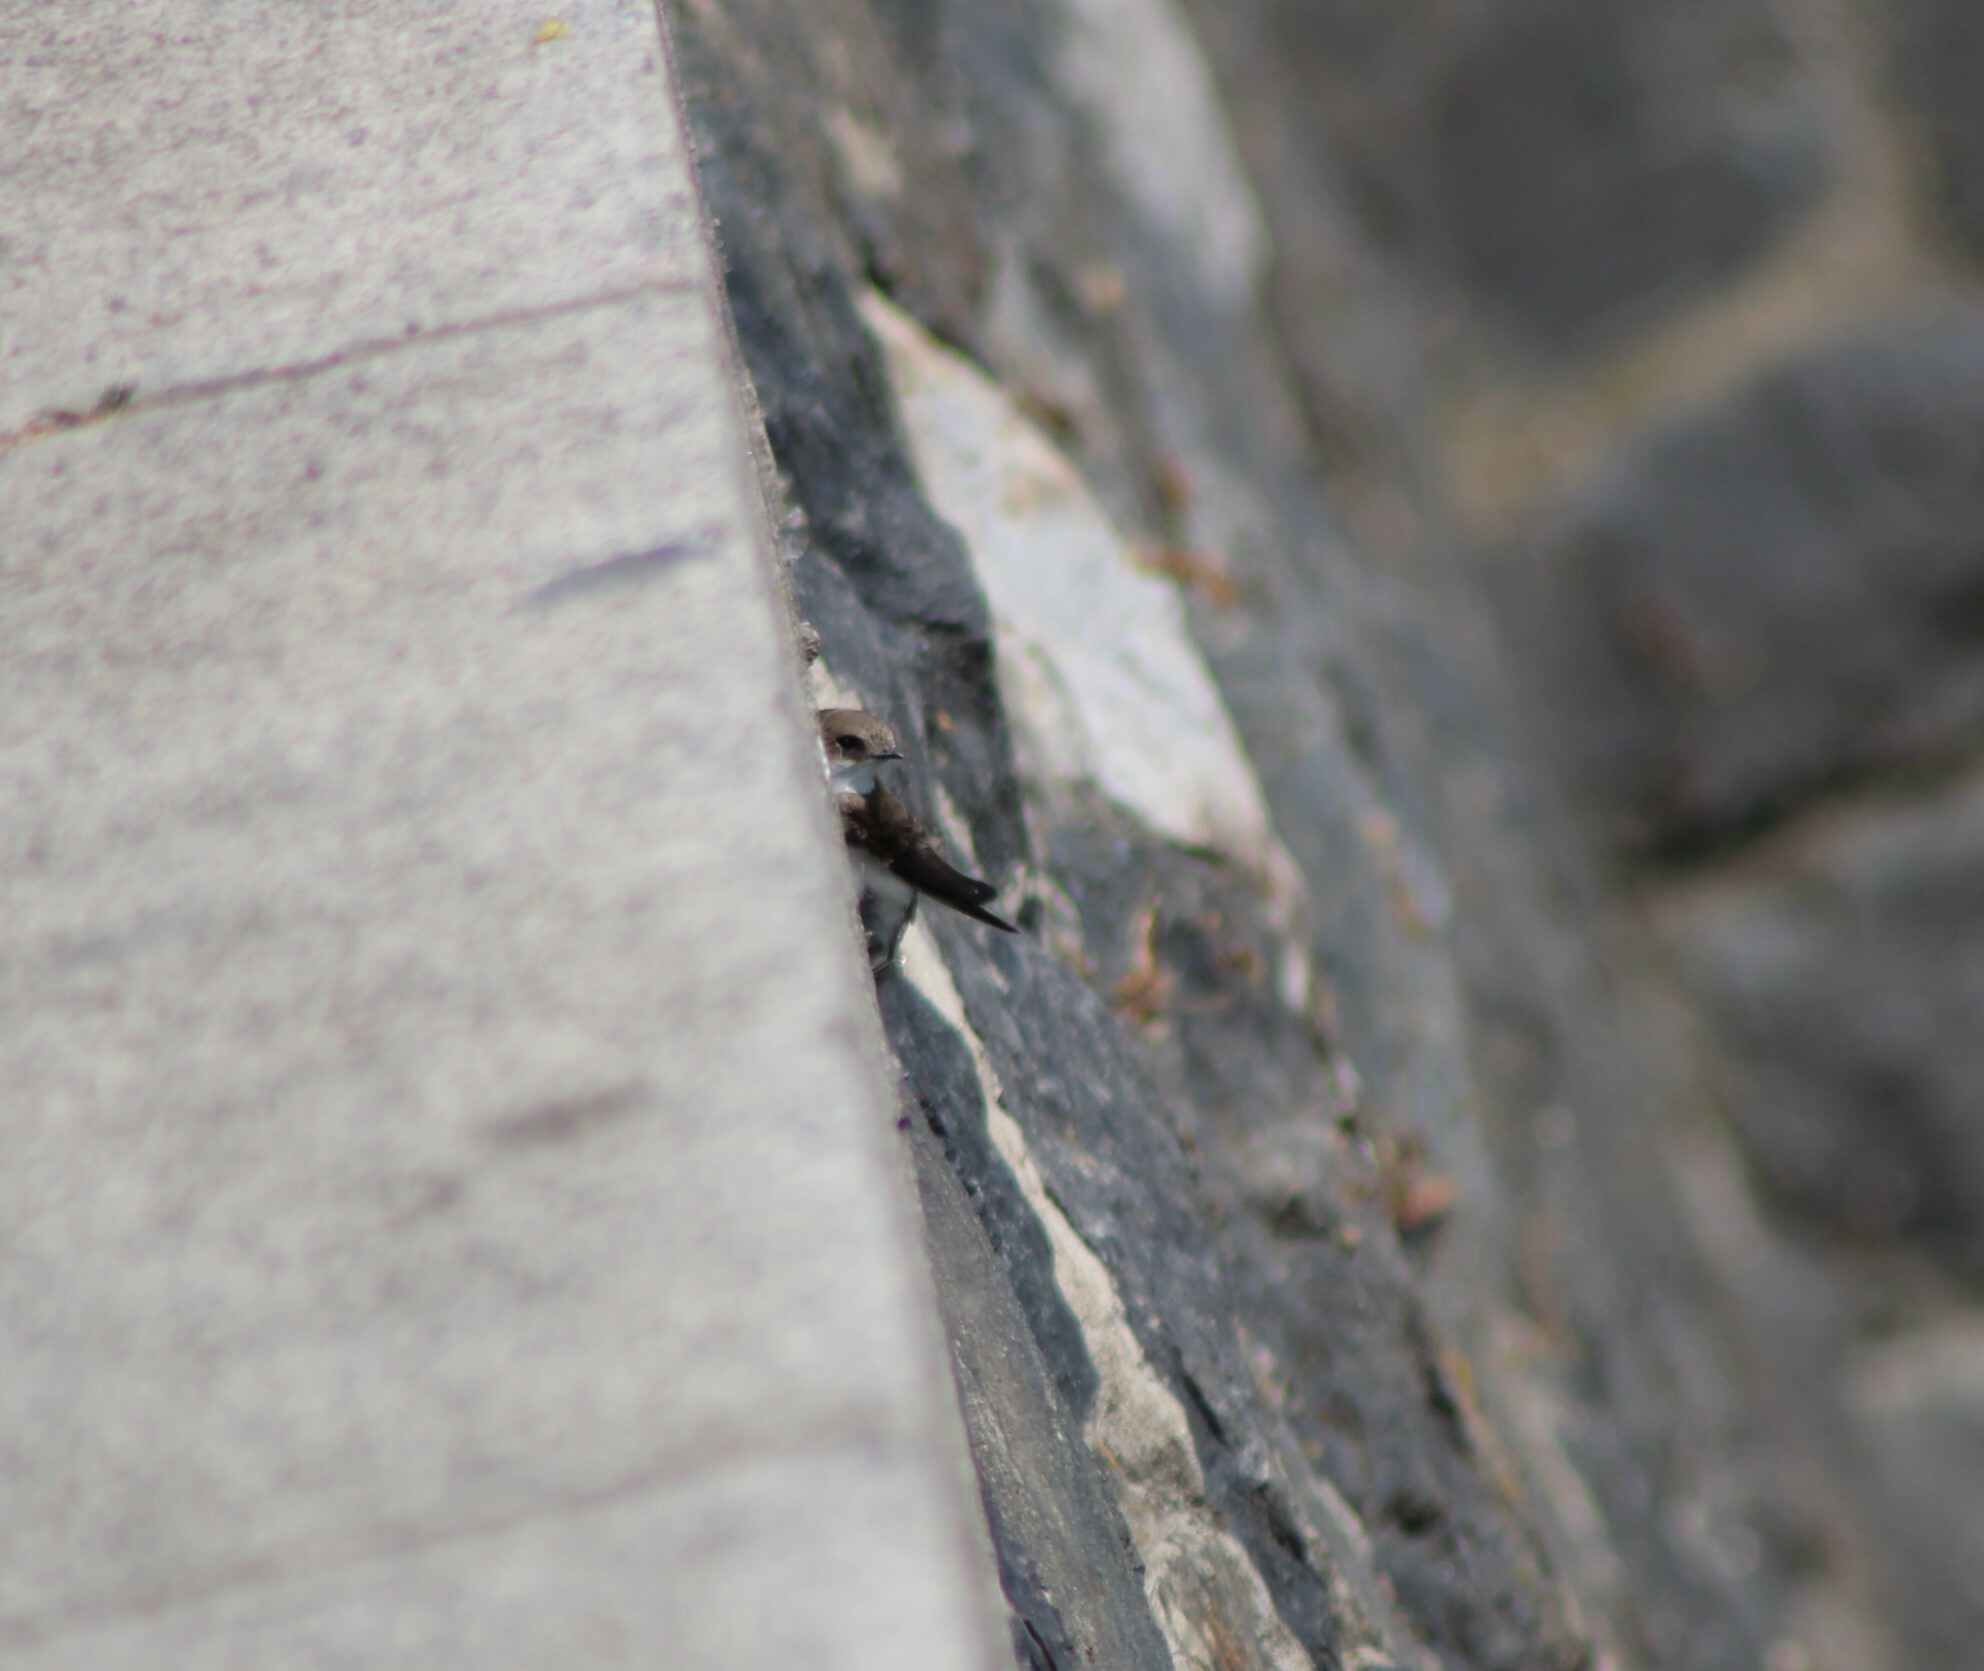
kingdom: Animalia
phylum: Chordata
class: Aves
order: Passeriformes
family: Hirundinidae
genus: Riparia
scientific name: Riparia riparia
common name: Sand martin
